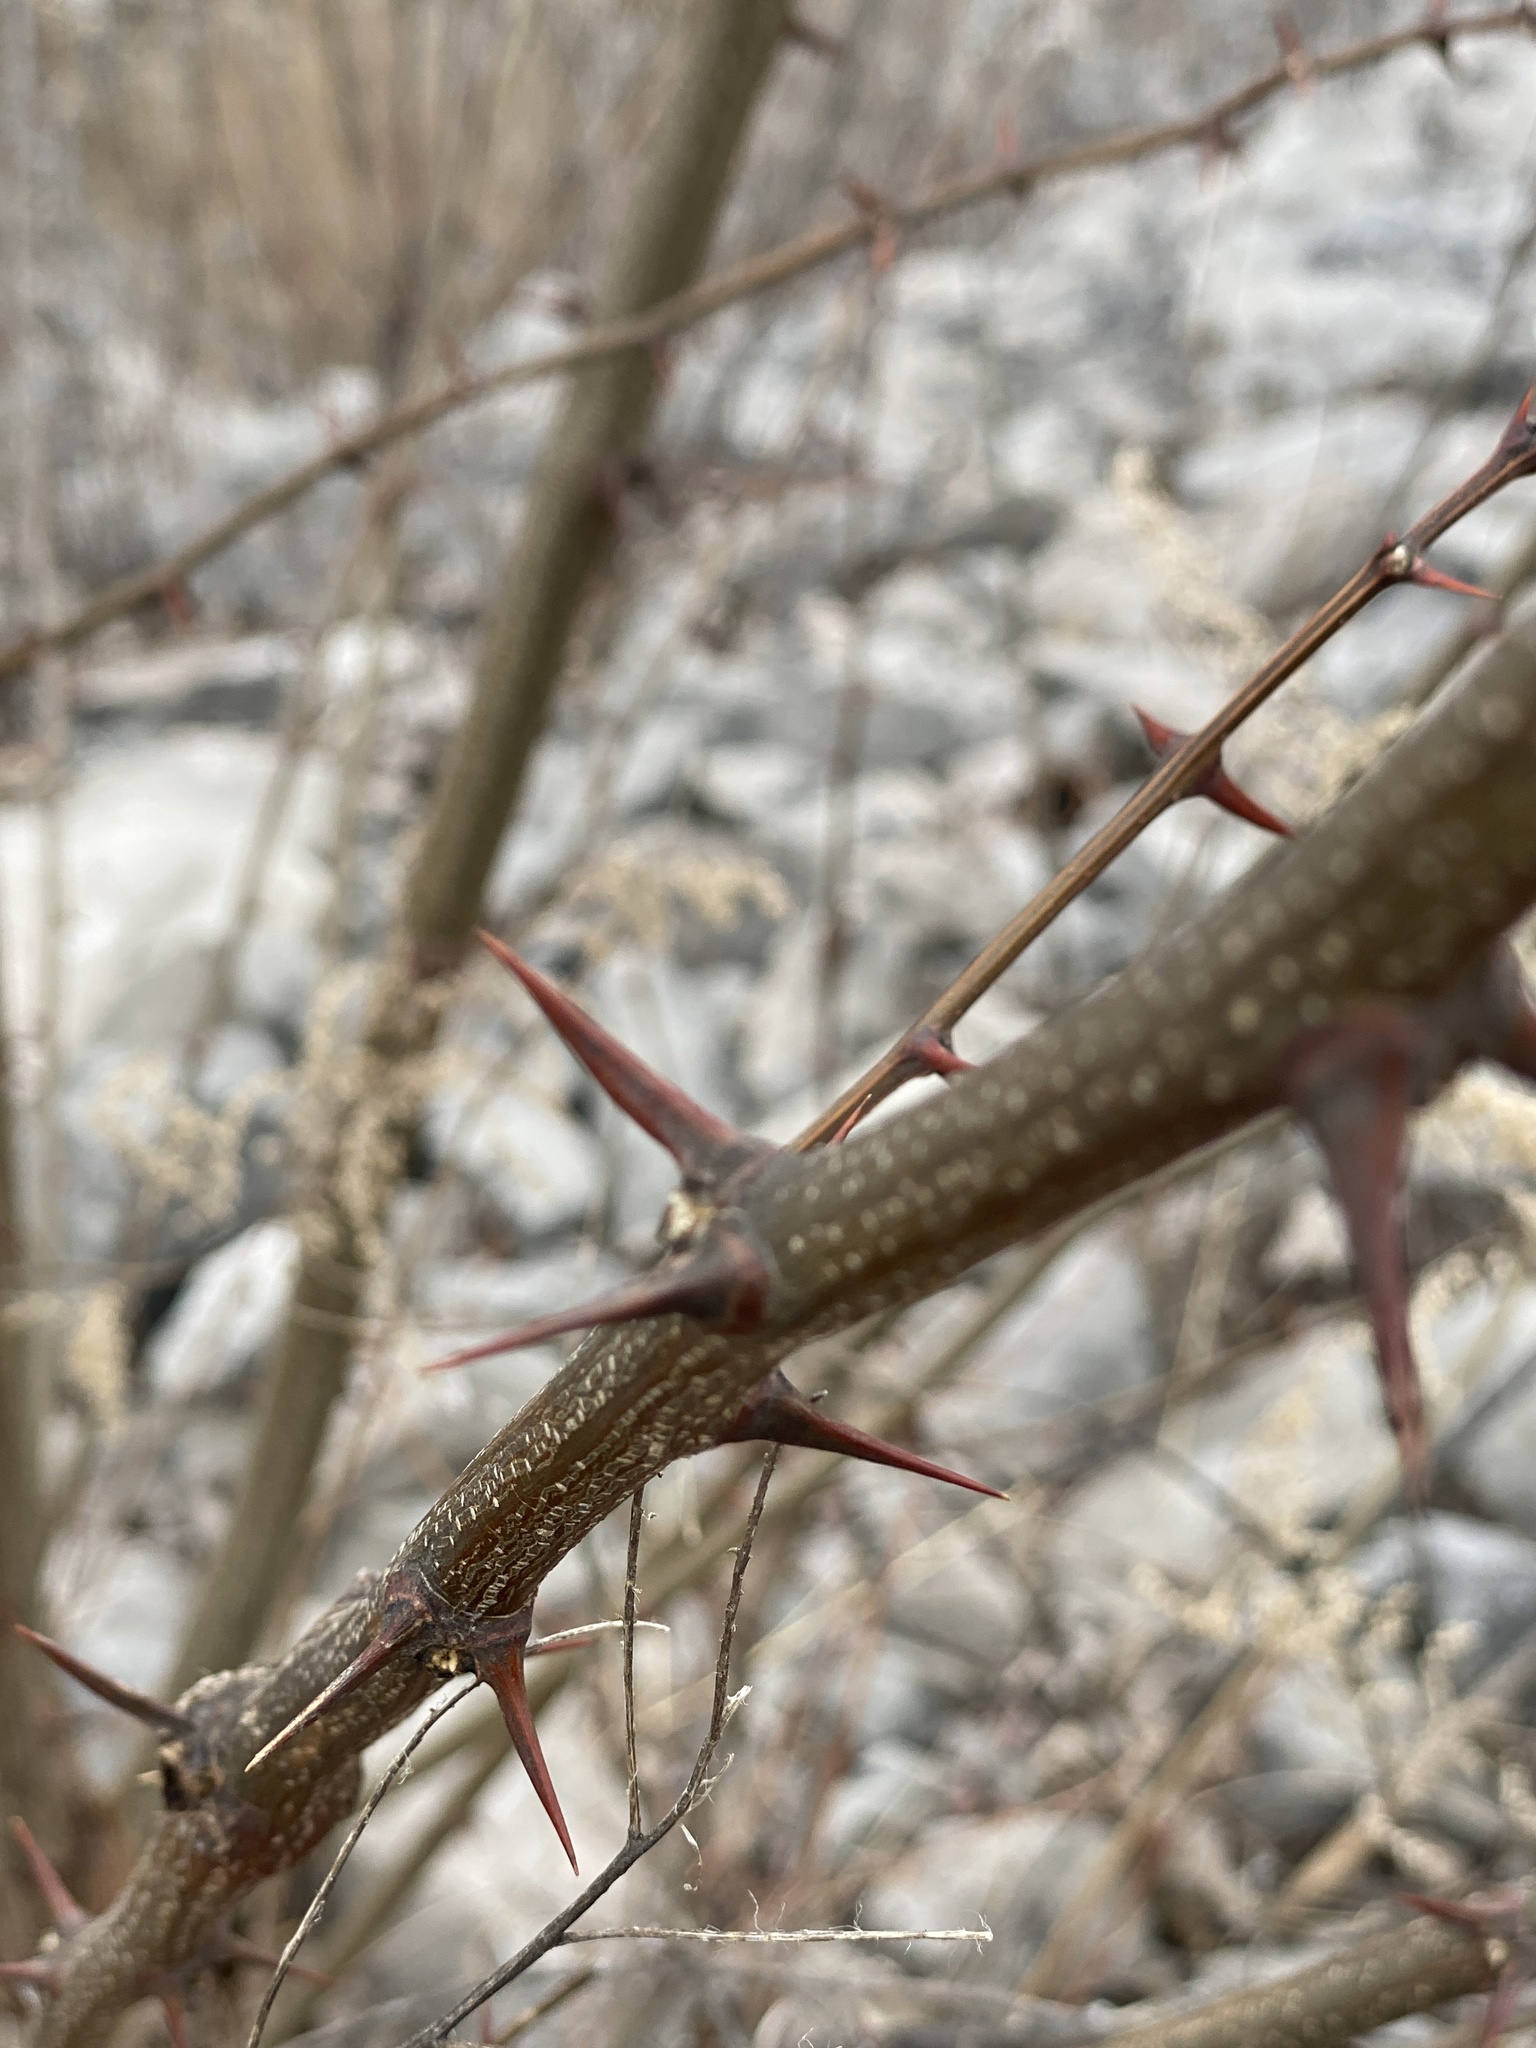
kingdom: Plantae
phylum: Tracheophyta
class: Magnoliopsida
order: Fabales
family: Fabaceae
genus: Robinia
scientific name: Robinia pseudoacacia
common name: Black locust
